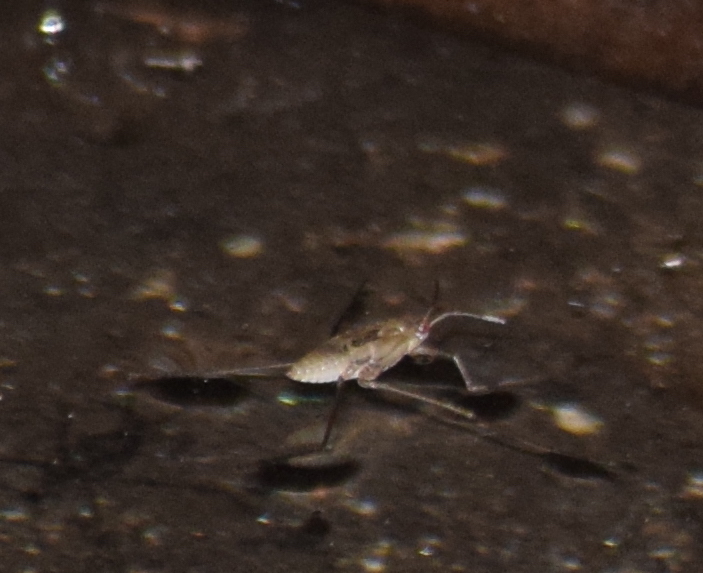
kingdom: Animalia
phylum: Arthropoda
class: Insecta
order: Hemiptera
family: Gerridae
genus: Aquarius
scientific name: Aquarius remigis
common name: Common water strider
